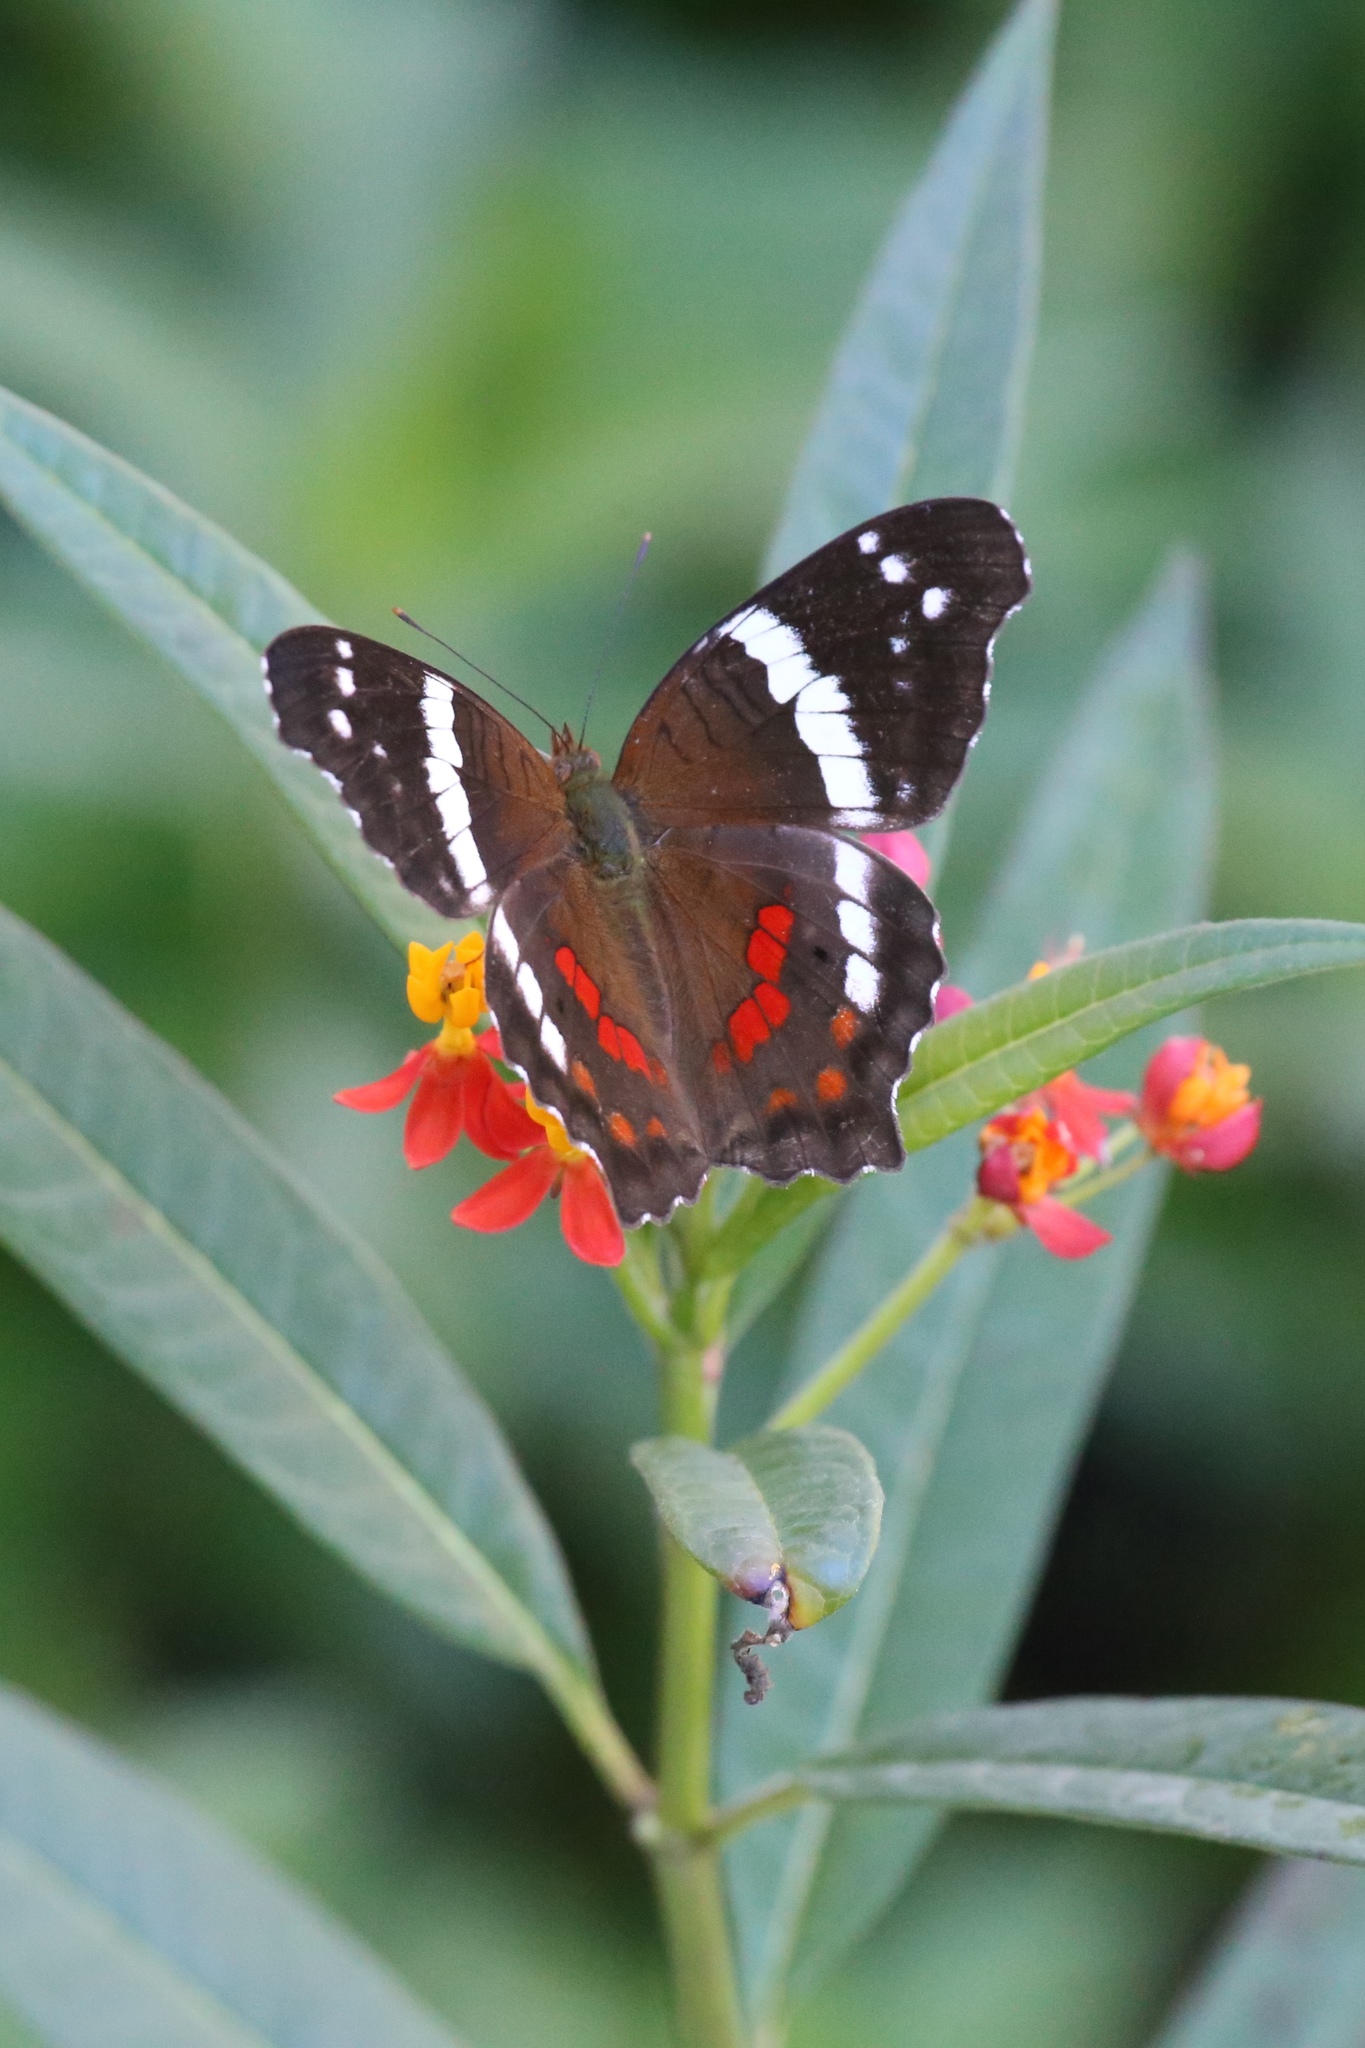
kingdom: Animalia
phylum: Arthropoda
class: Insecta
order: Lepidoptera
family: Nymphalidae
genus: Anartia
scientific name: Anartia fatima
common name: Banded peacock
